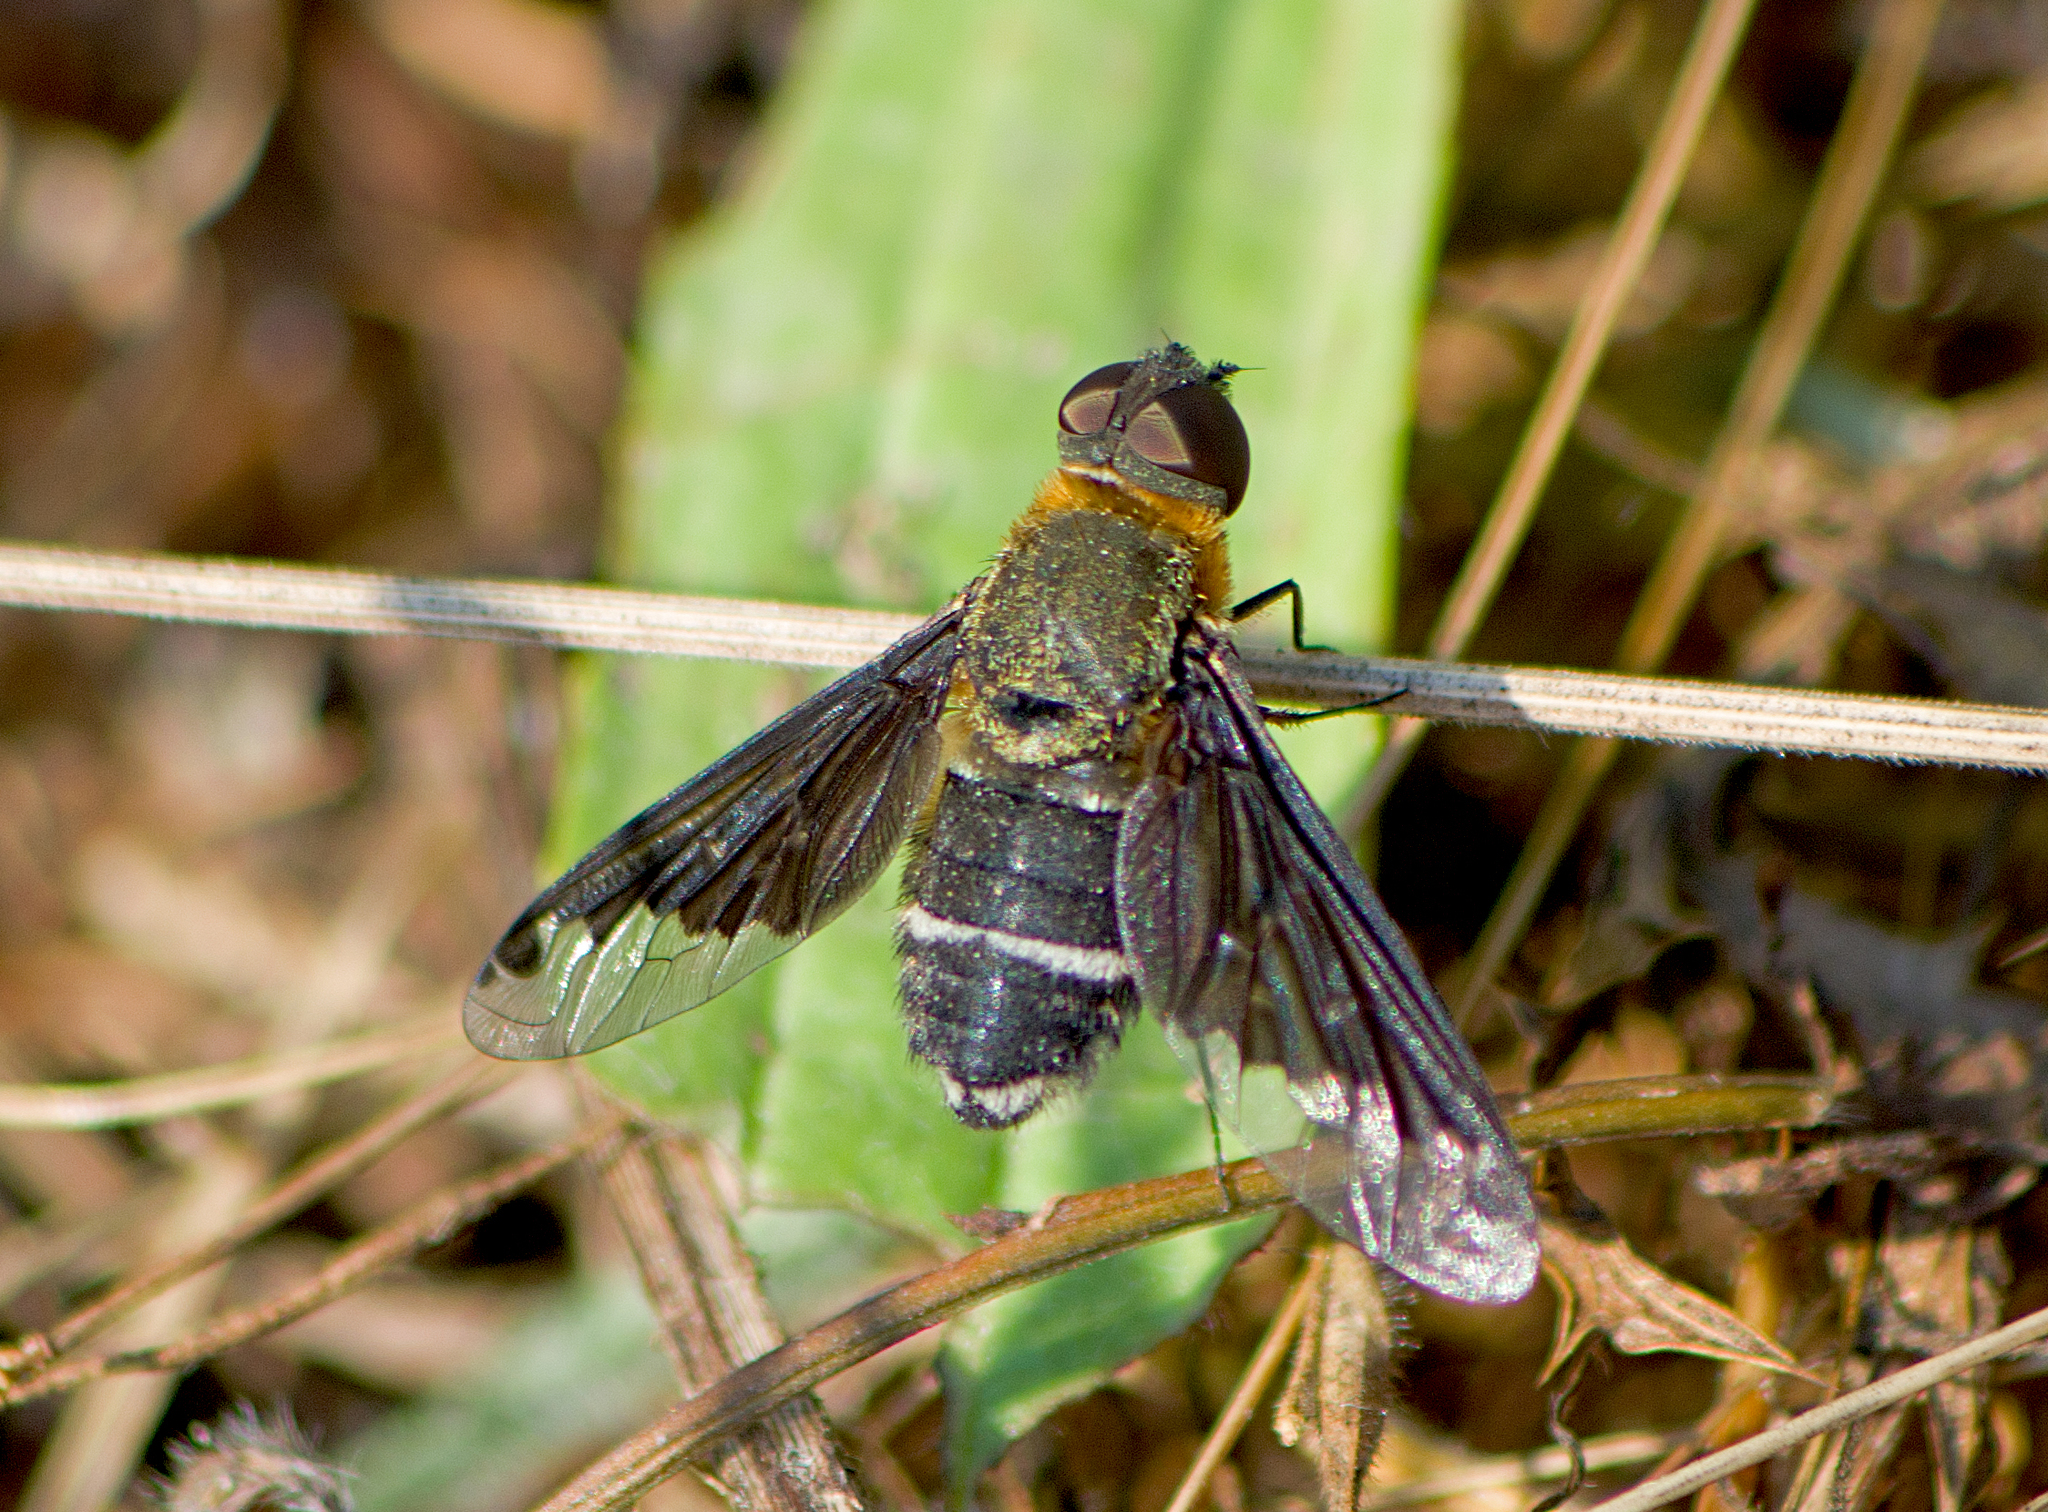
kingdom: Animalia
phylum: Arthropoda
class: Insecta
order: Diptera
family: Bombyliidae
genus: Hemipenthes
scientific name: Hemipenthes velutina
